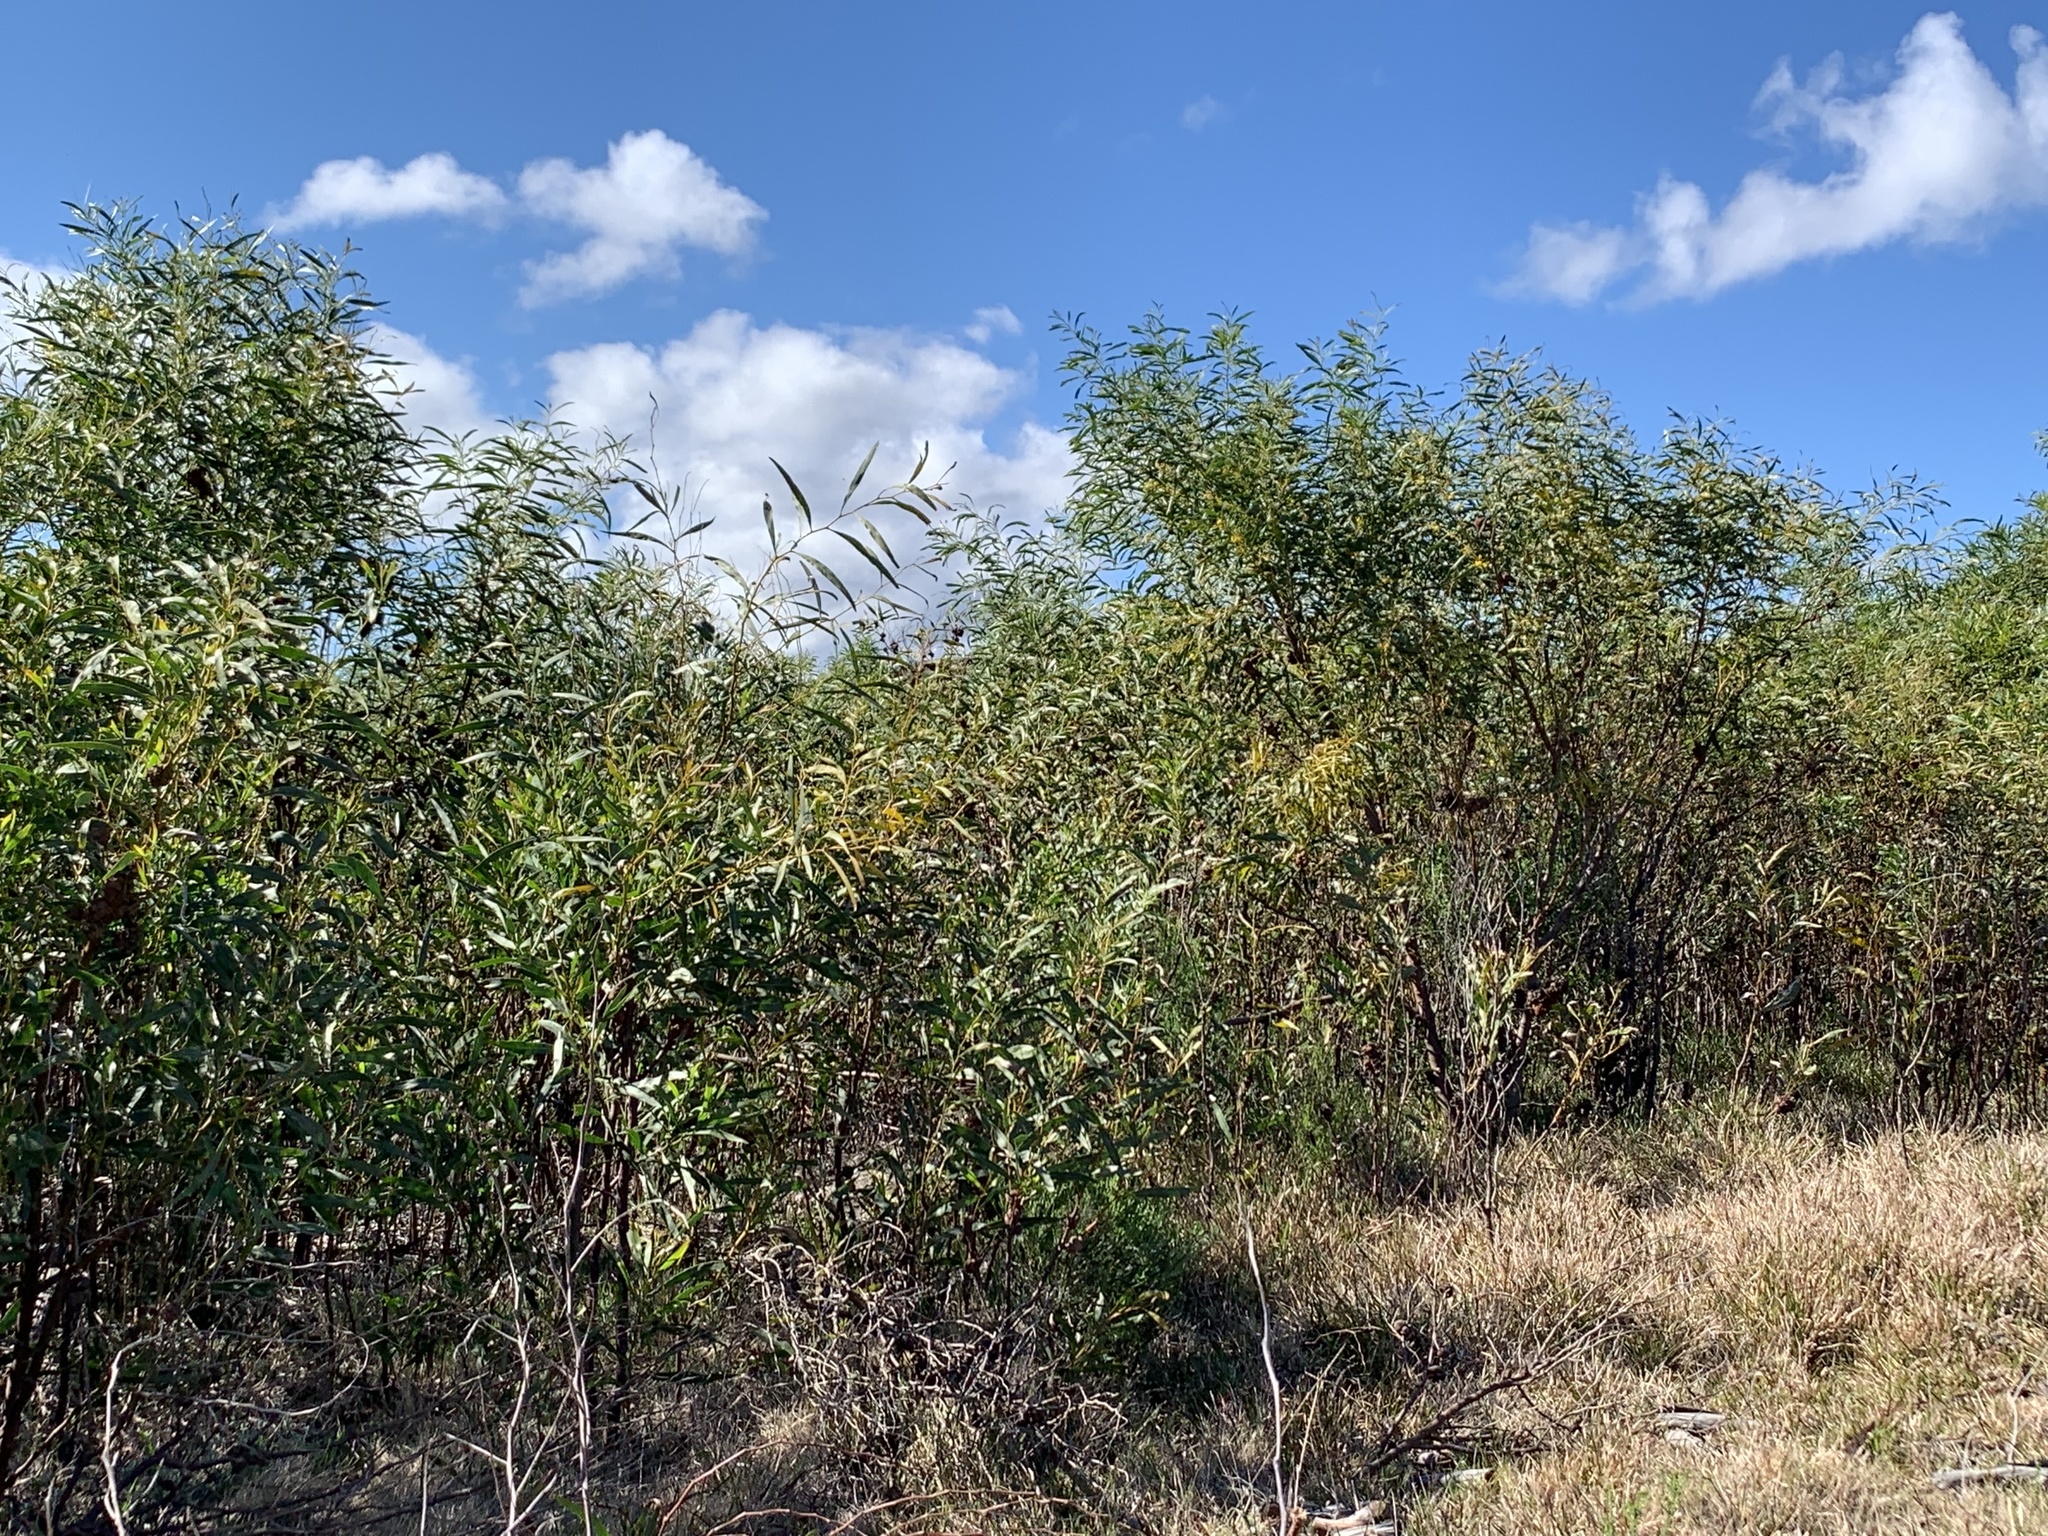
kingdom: Plantae
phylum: Tracheophyta
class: Magnoliopsida
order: Fabales
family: Fabaceae
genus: Acacia
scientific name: Acacia saligna
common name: Orange wattle
